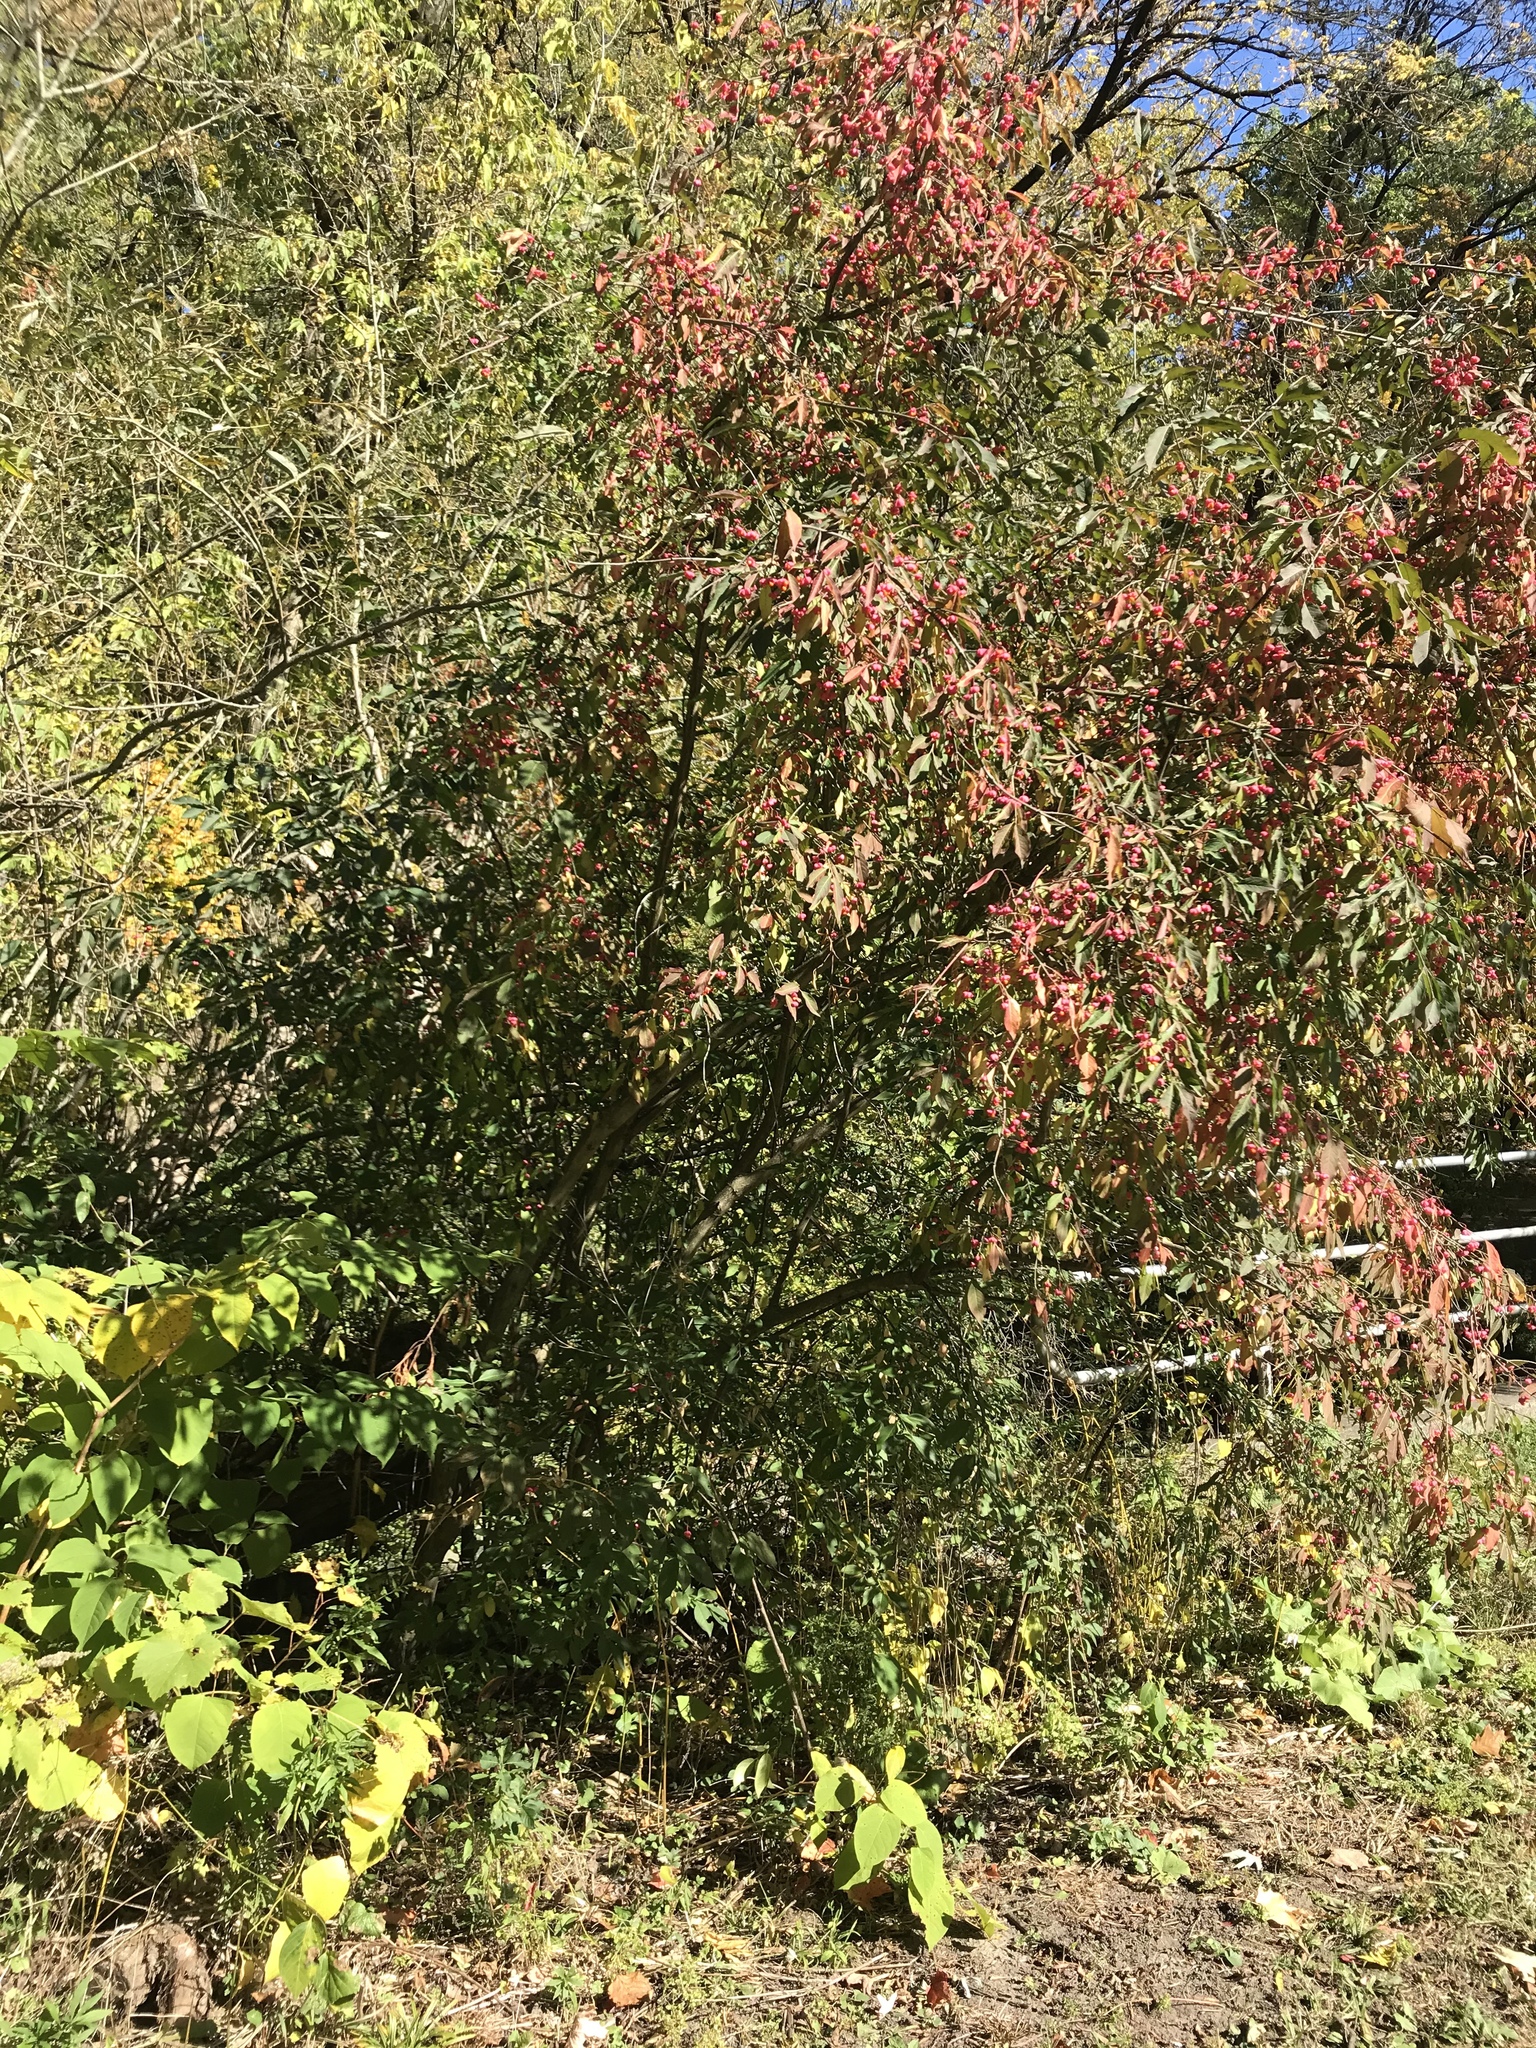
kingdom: Plantae
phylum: Tracheophyta
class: Magnoliopsida
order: Celastrales
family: Celastraceae
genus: Euonymus
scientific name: Euonymus europaeus
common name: Spindle
